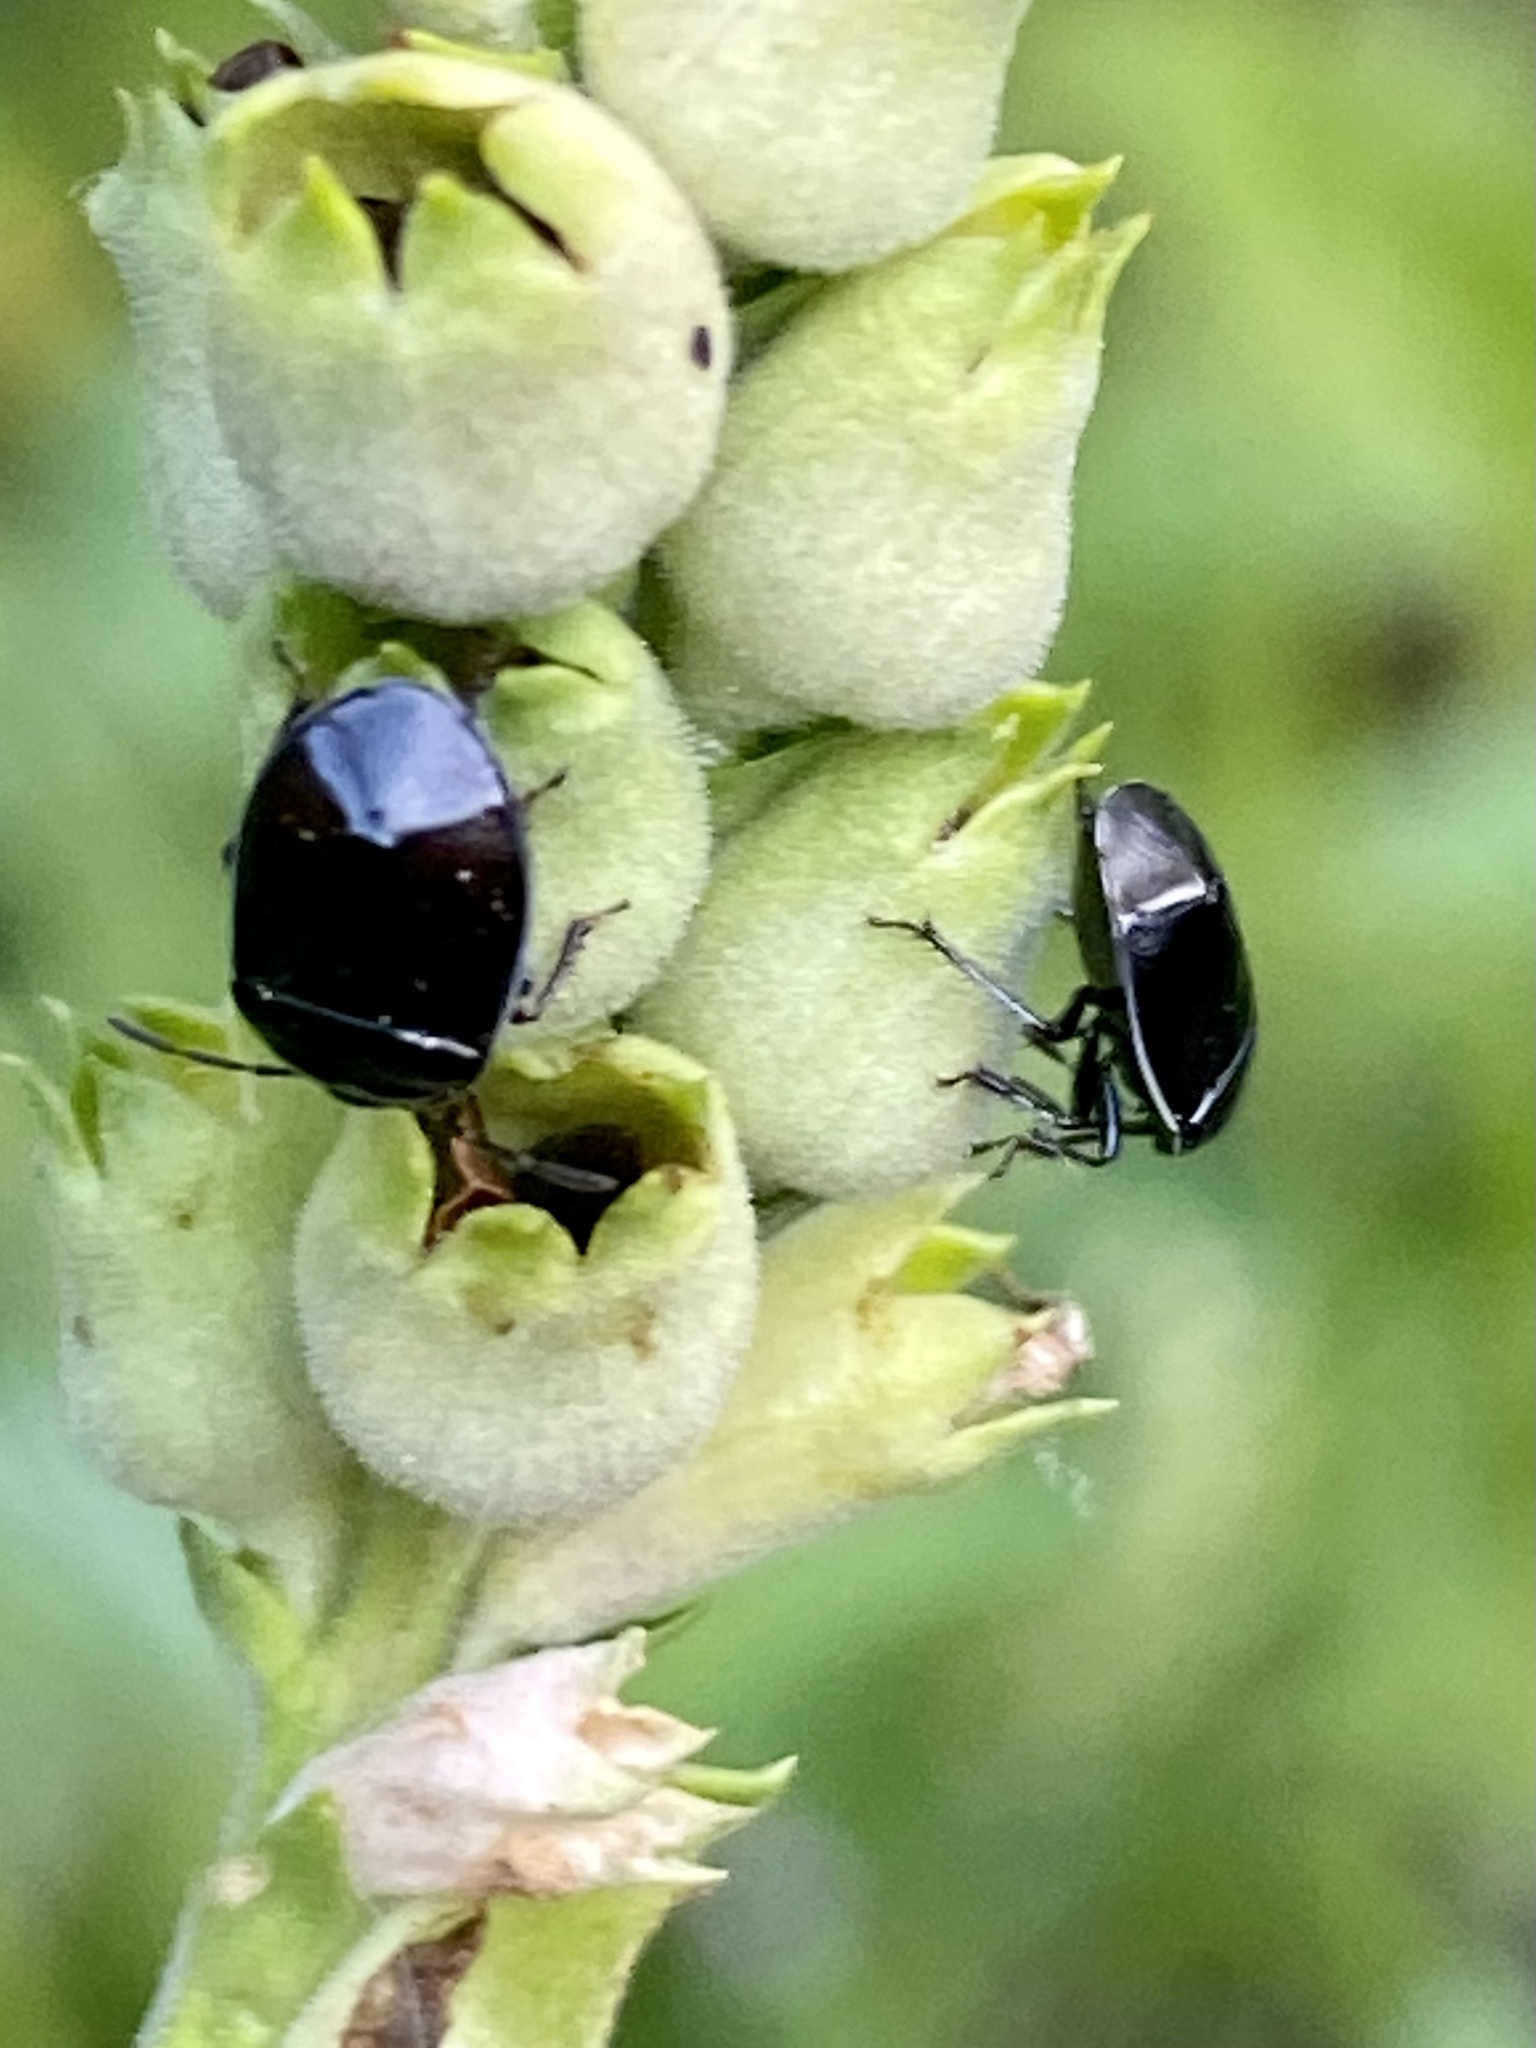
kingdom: Animalia
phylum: Arthropoda
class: Insecta
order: Hemiptera
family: Cydnidae
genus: Sehirus
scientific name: Sehirus cinctus
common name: White-margined burrower bug
